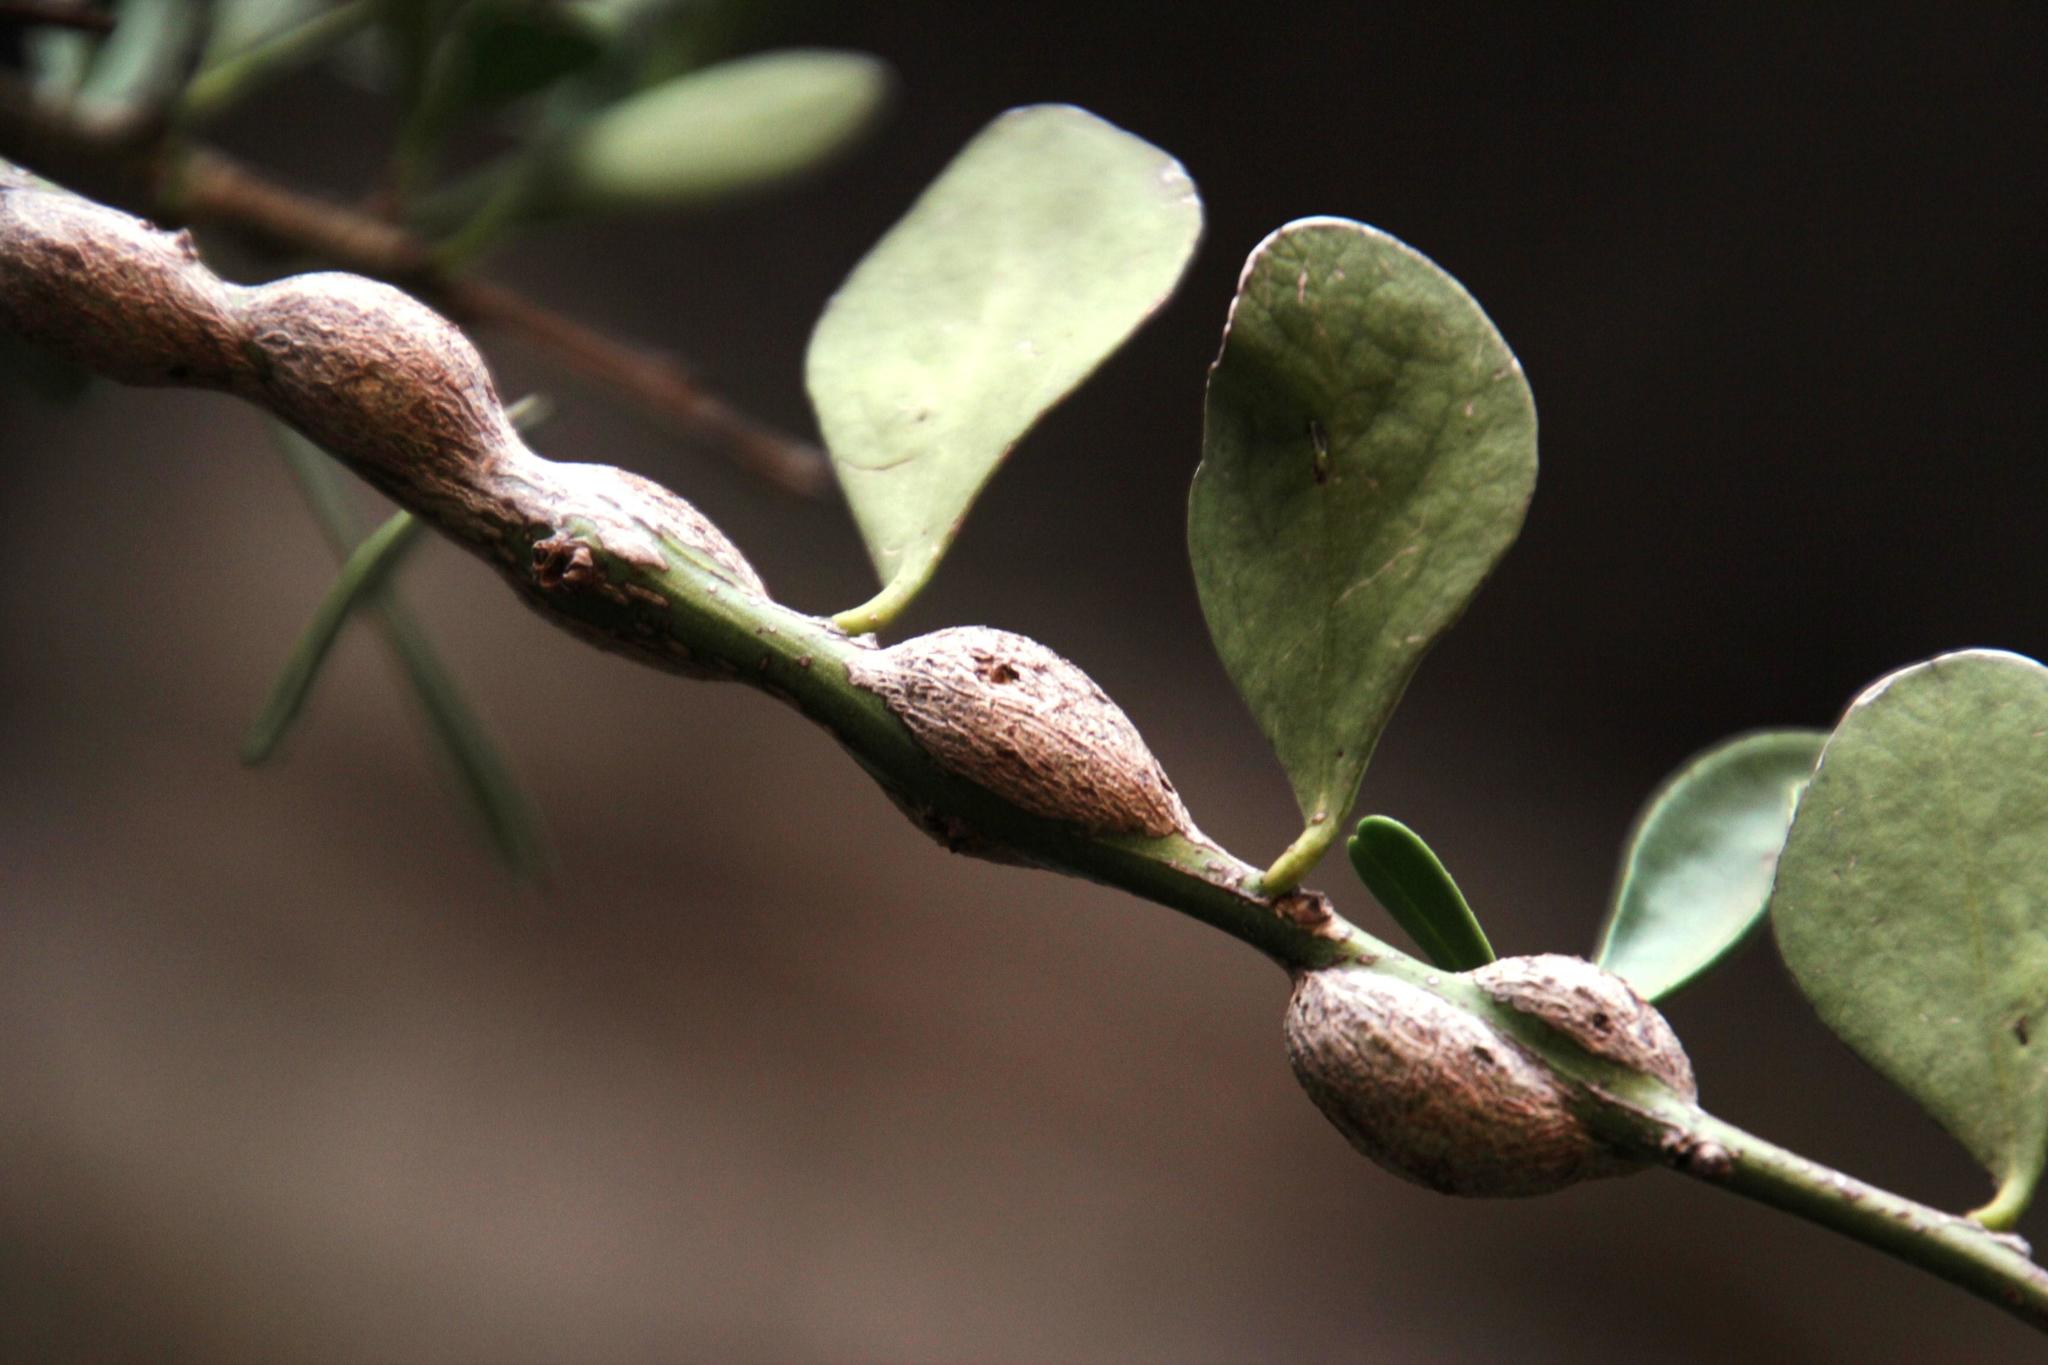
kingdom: Plantae
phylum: Tracheophyta
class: Magnoliopsida
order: Celastrales
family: Celastraceae
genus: Gymnosporia
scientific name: Gymnosporia buxifolia
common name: Common spike-thorn
